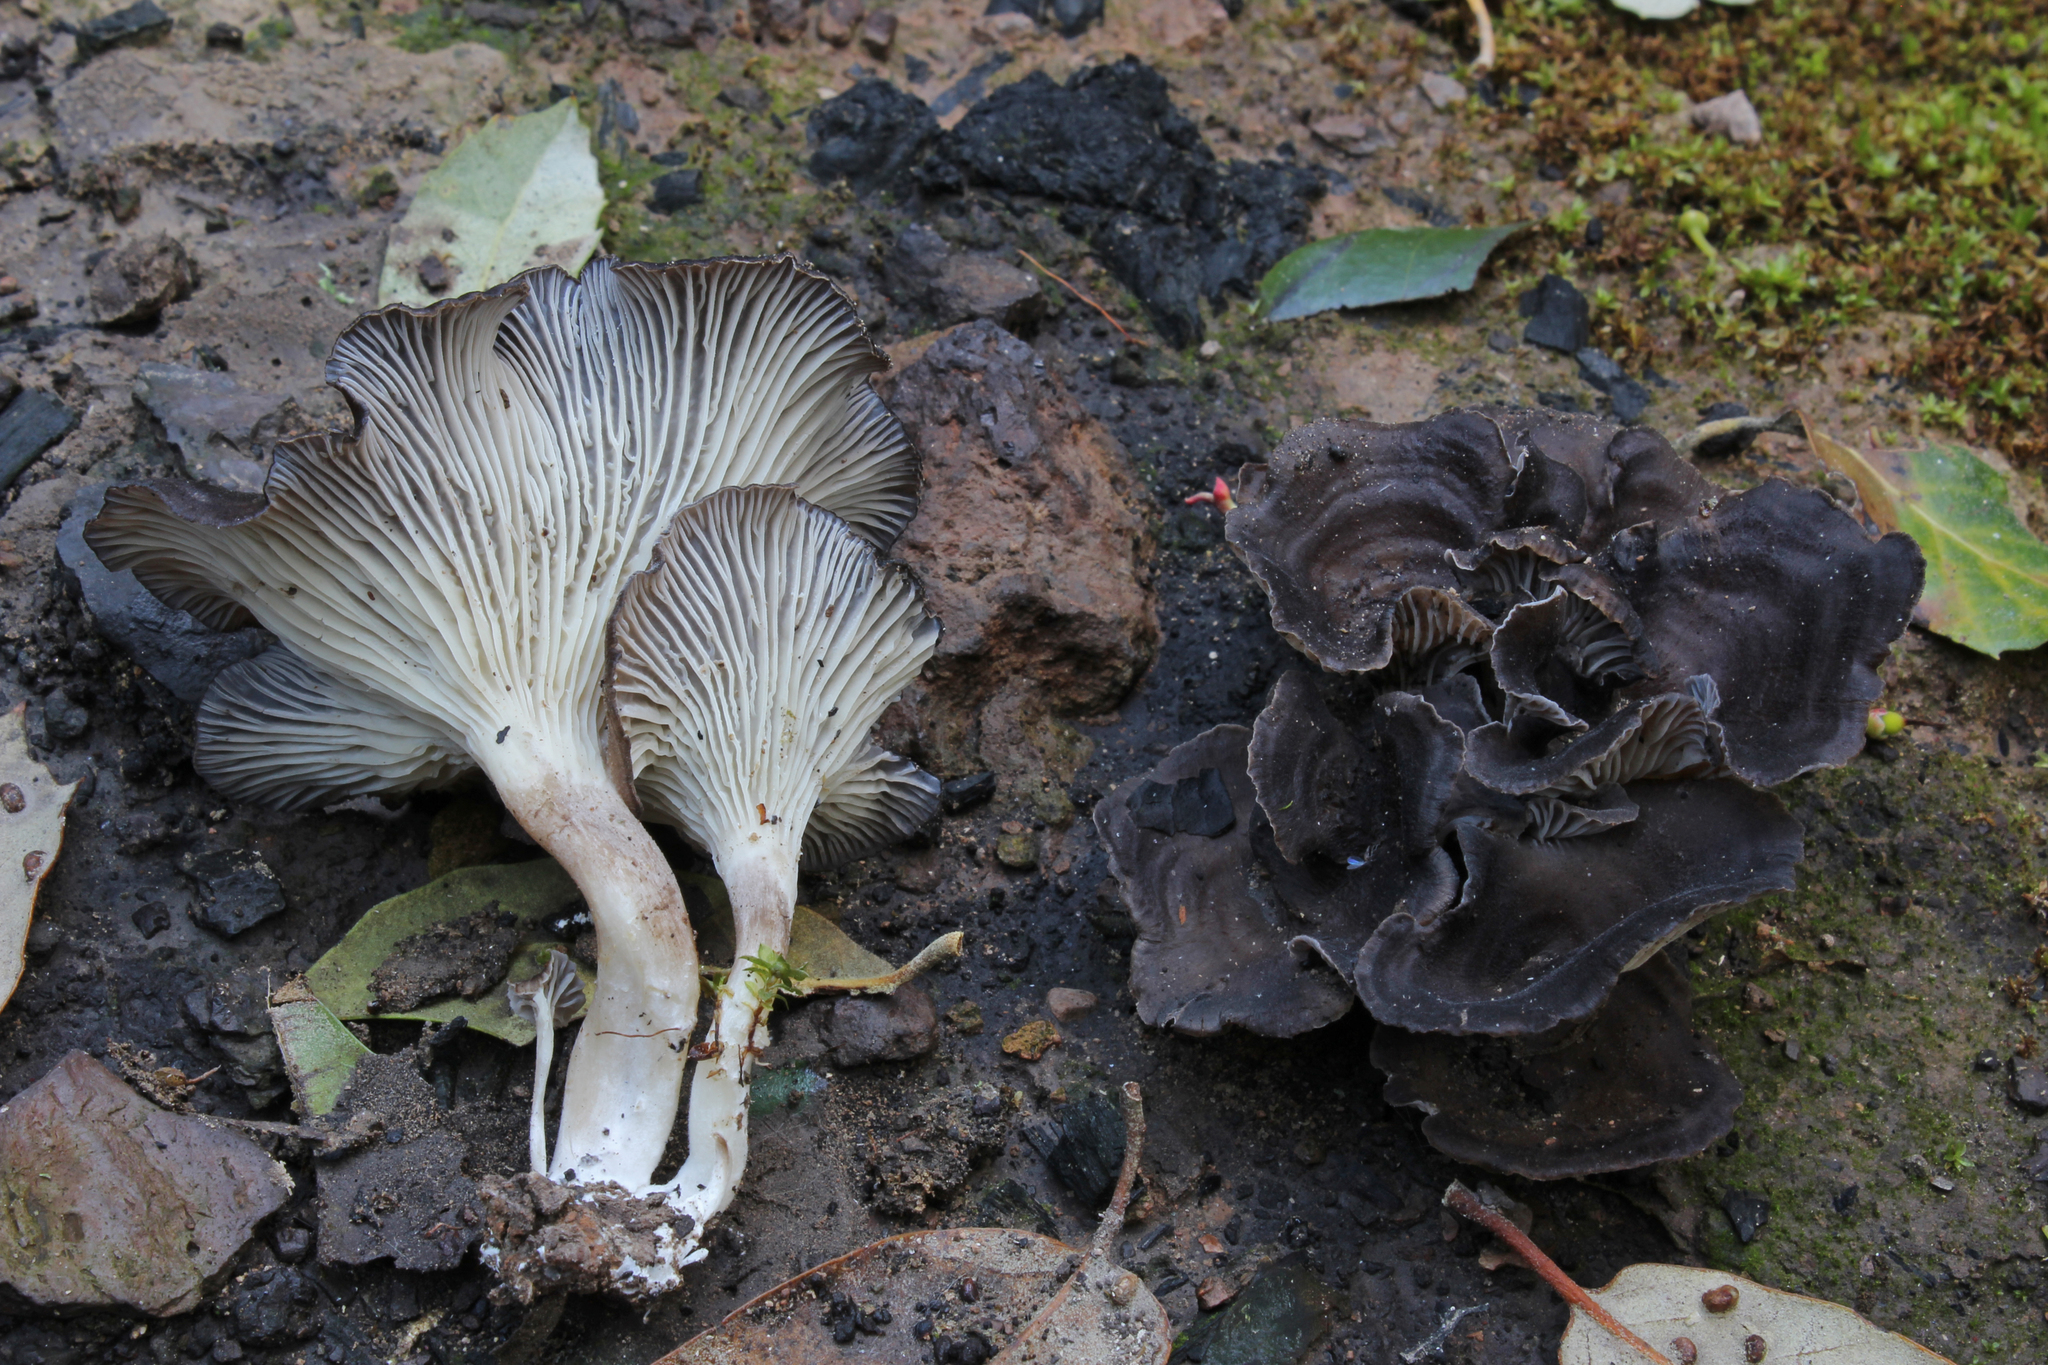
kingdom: Fungi
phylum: Basidiomycota
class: Agaricomycetes
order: Polyporales
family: Polyporaceae
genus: Faerberia
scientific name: Faerberia carbonaria
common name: Firesite funnel
